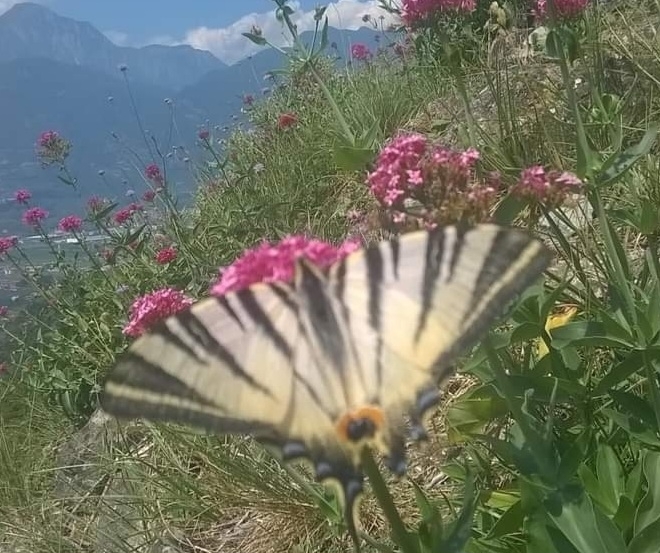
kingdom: Animalia
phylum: Arthropoda
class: Insecta
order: Lepidoptera
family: Papilionidae
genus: Iphiclides
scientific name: Iphiclides podalirius
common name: Scarce swallowtail
